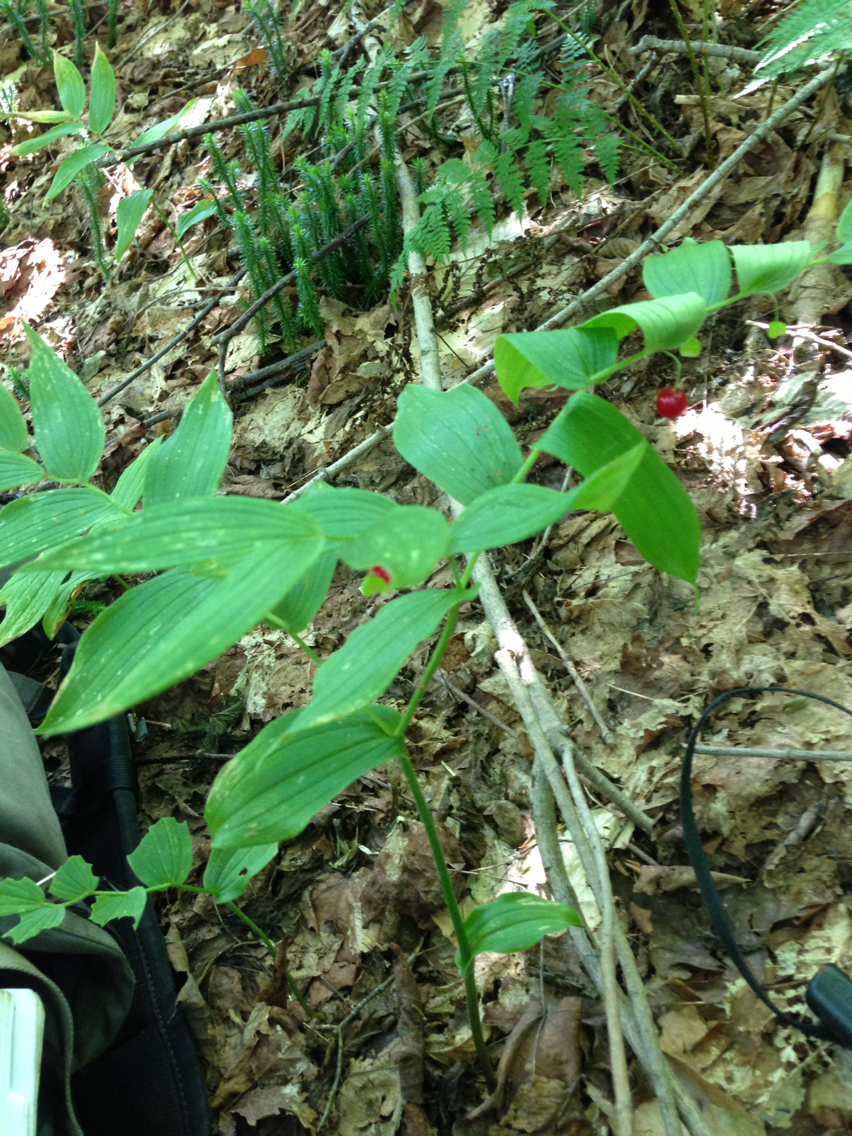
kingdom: Plantae
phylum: Tracheophyta
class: Liliopsida
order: Liliales
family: Liliaceae
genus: Streptopus
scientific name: Streptopus lanceolatus
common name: Rose mandarin
